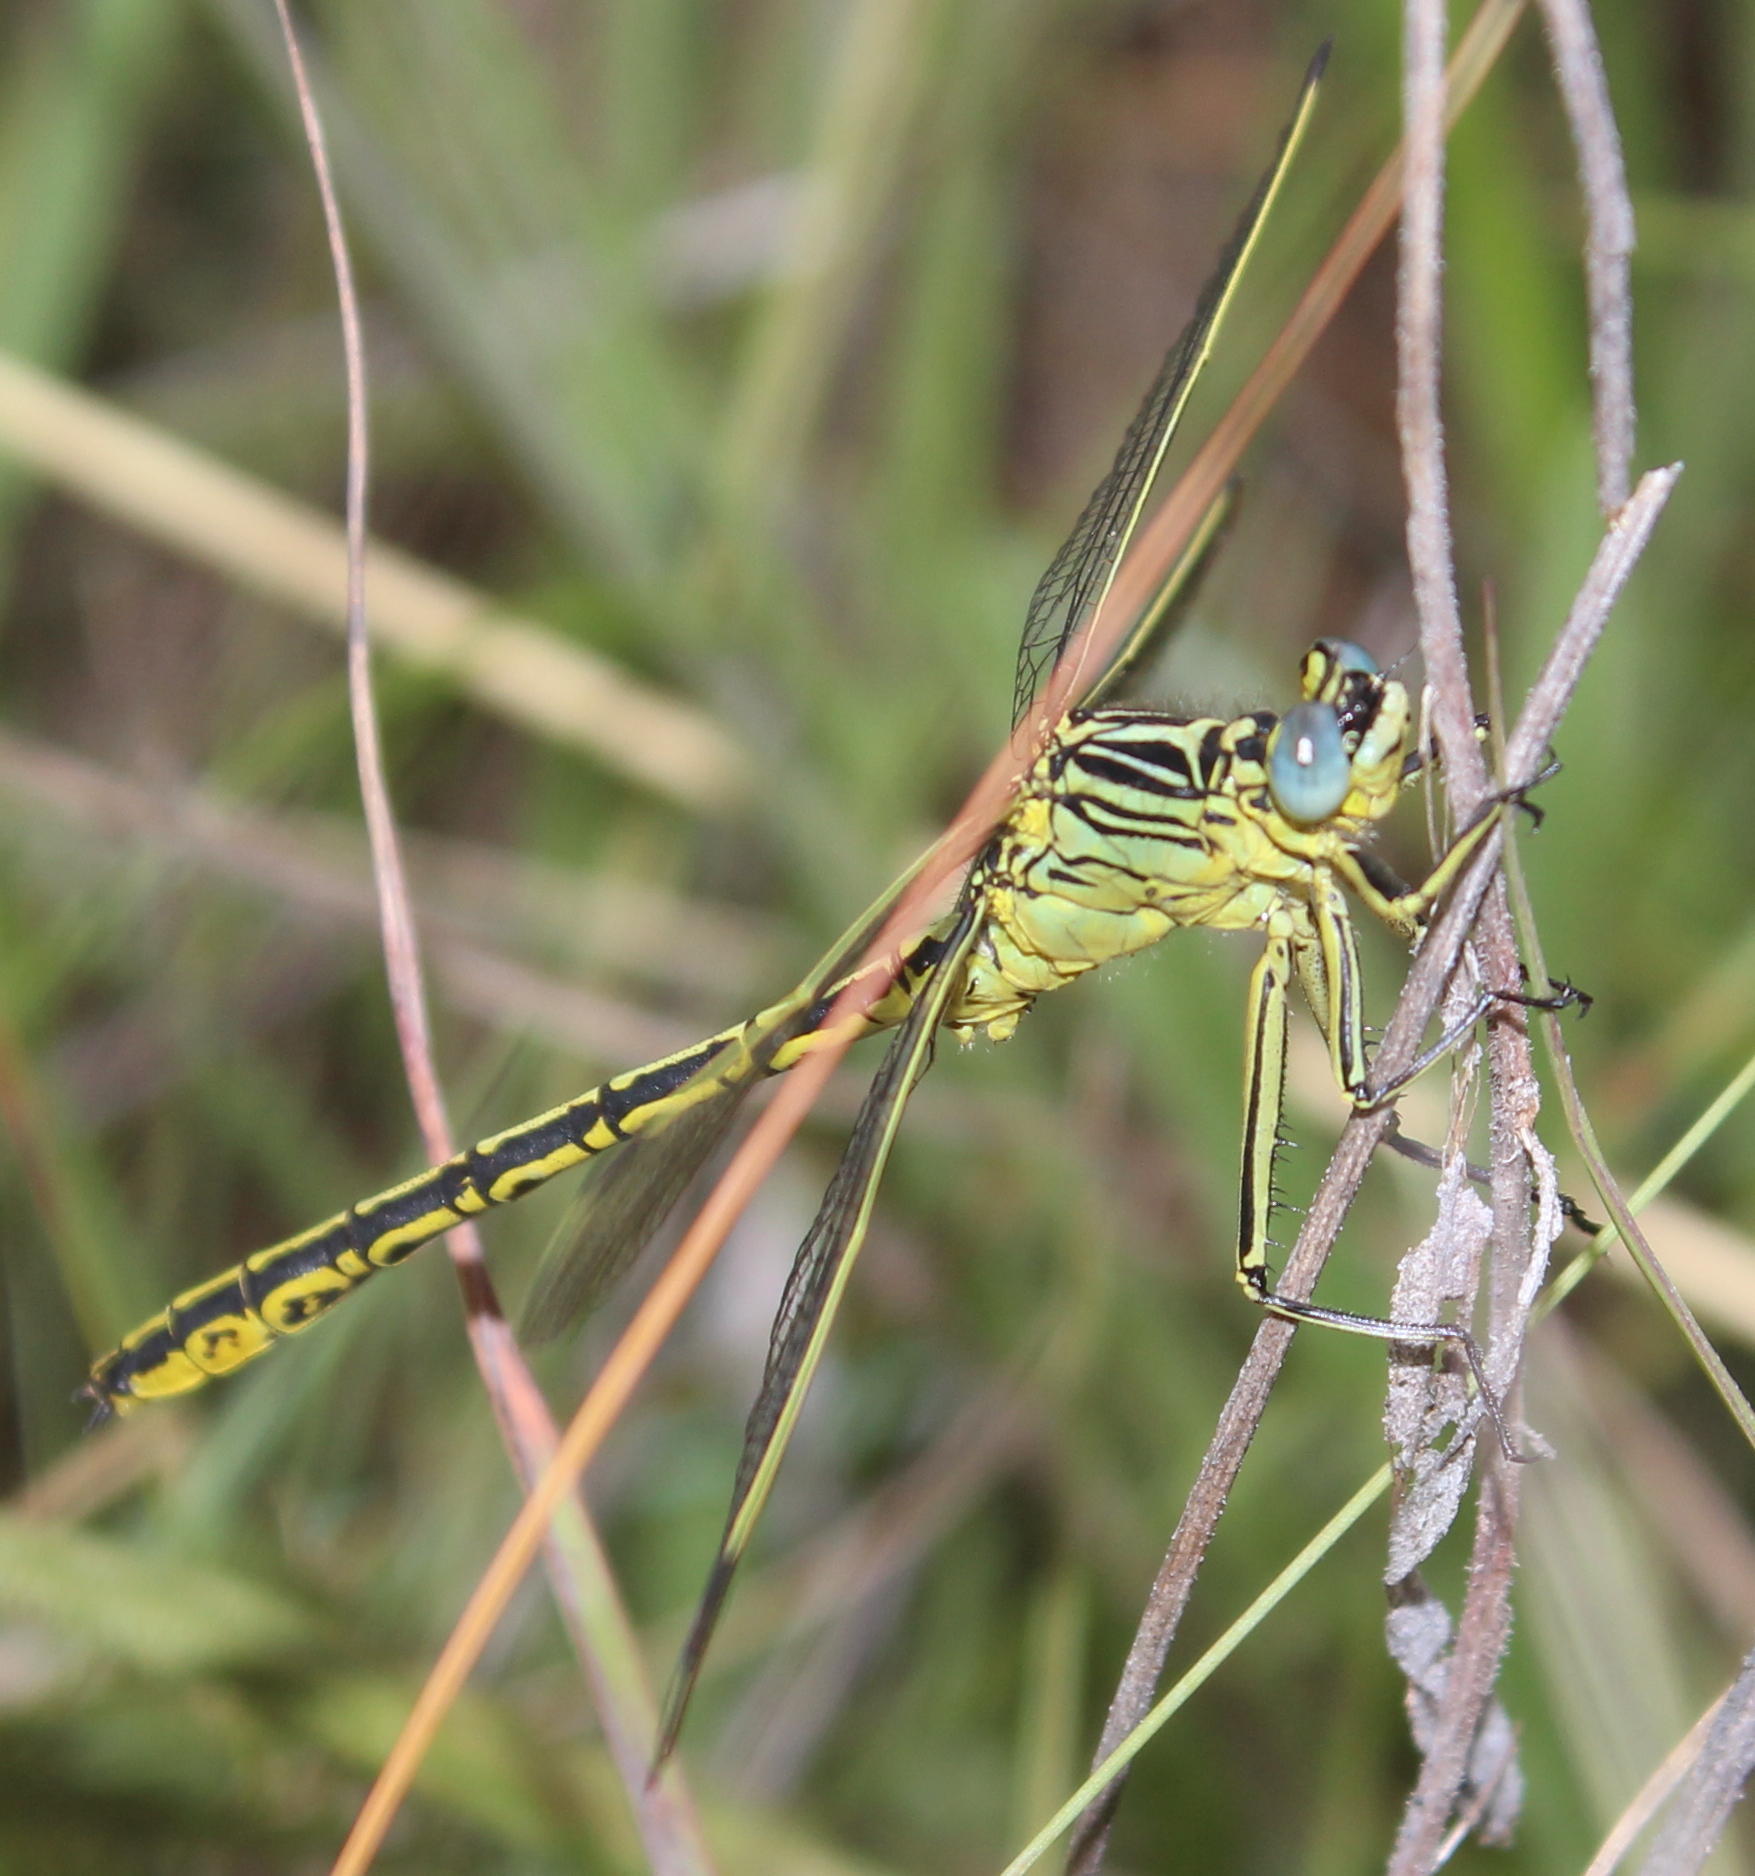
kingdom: Animalia
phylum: Arthropoda
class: Insecta
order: Odonata
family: Gomphidae
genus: Notogomphus
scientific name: Notogomphus praetorius
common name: Southern yellowjack
